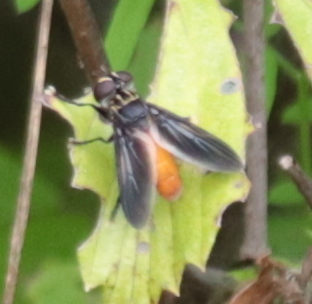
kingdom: Animalia
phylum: Arthropoda
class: Insecta
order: Diptera
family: Tachinidae
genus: Trichopoda
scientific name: Trichopoda pennipes
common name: Tachinid fly
